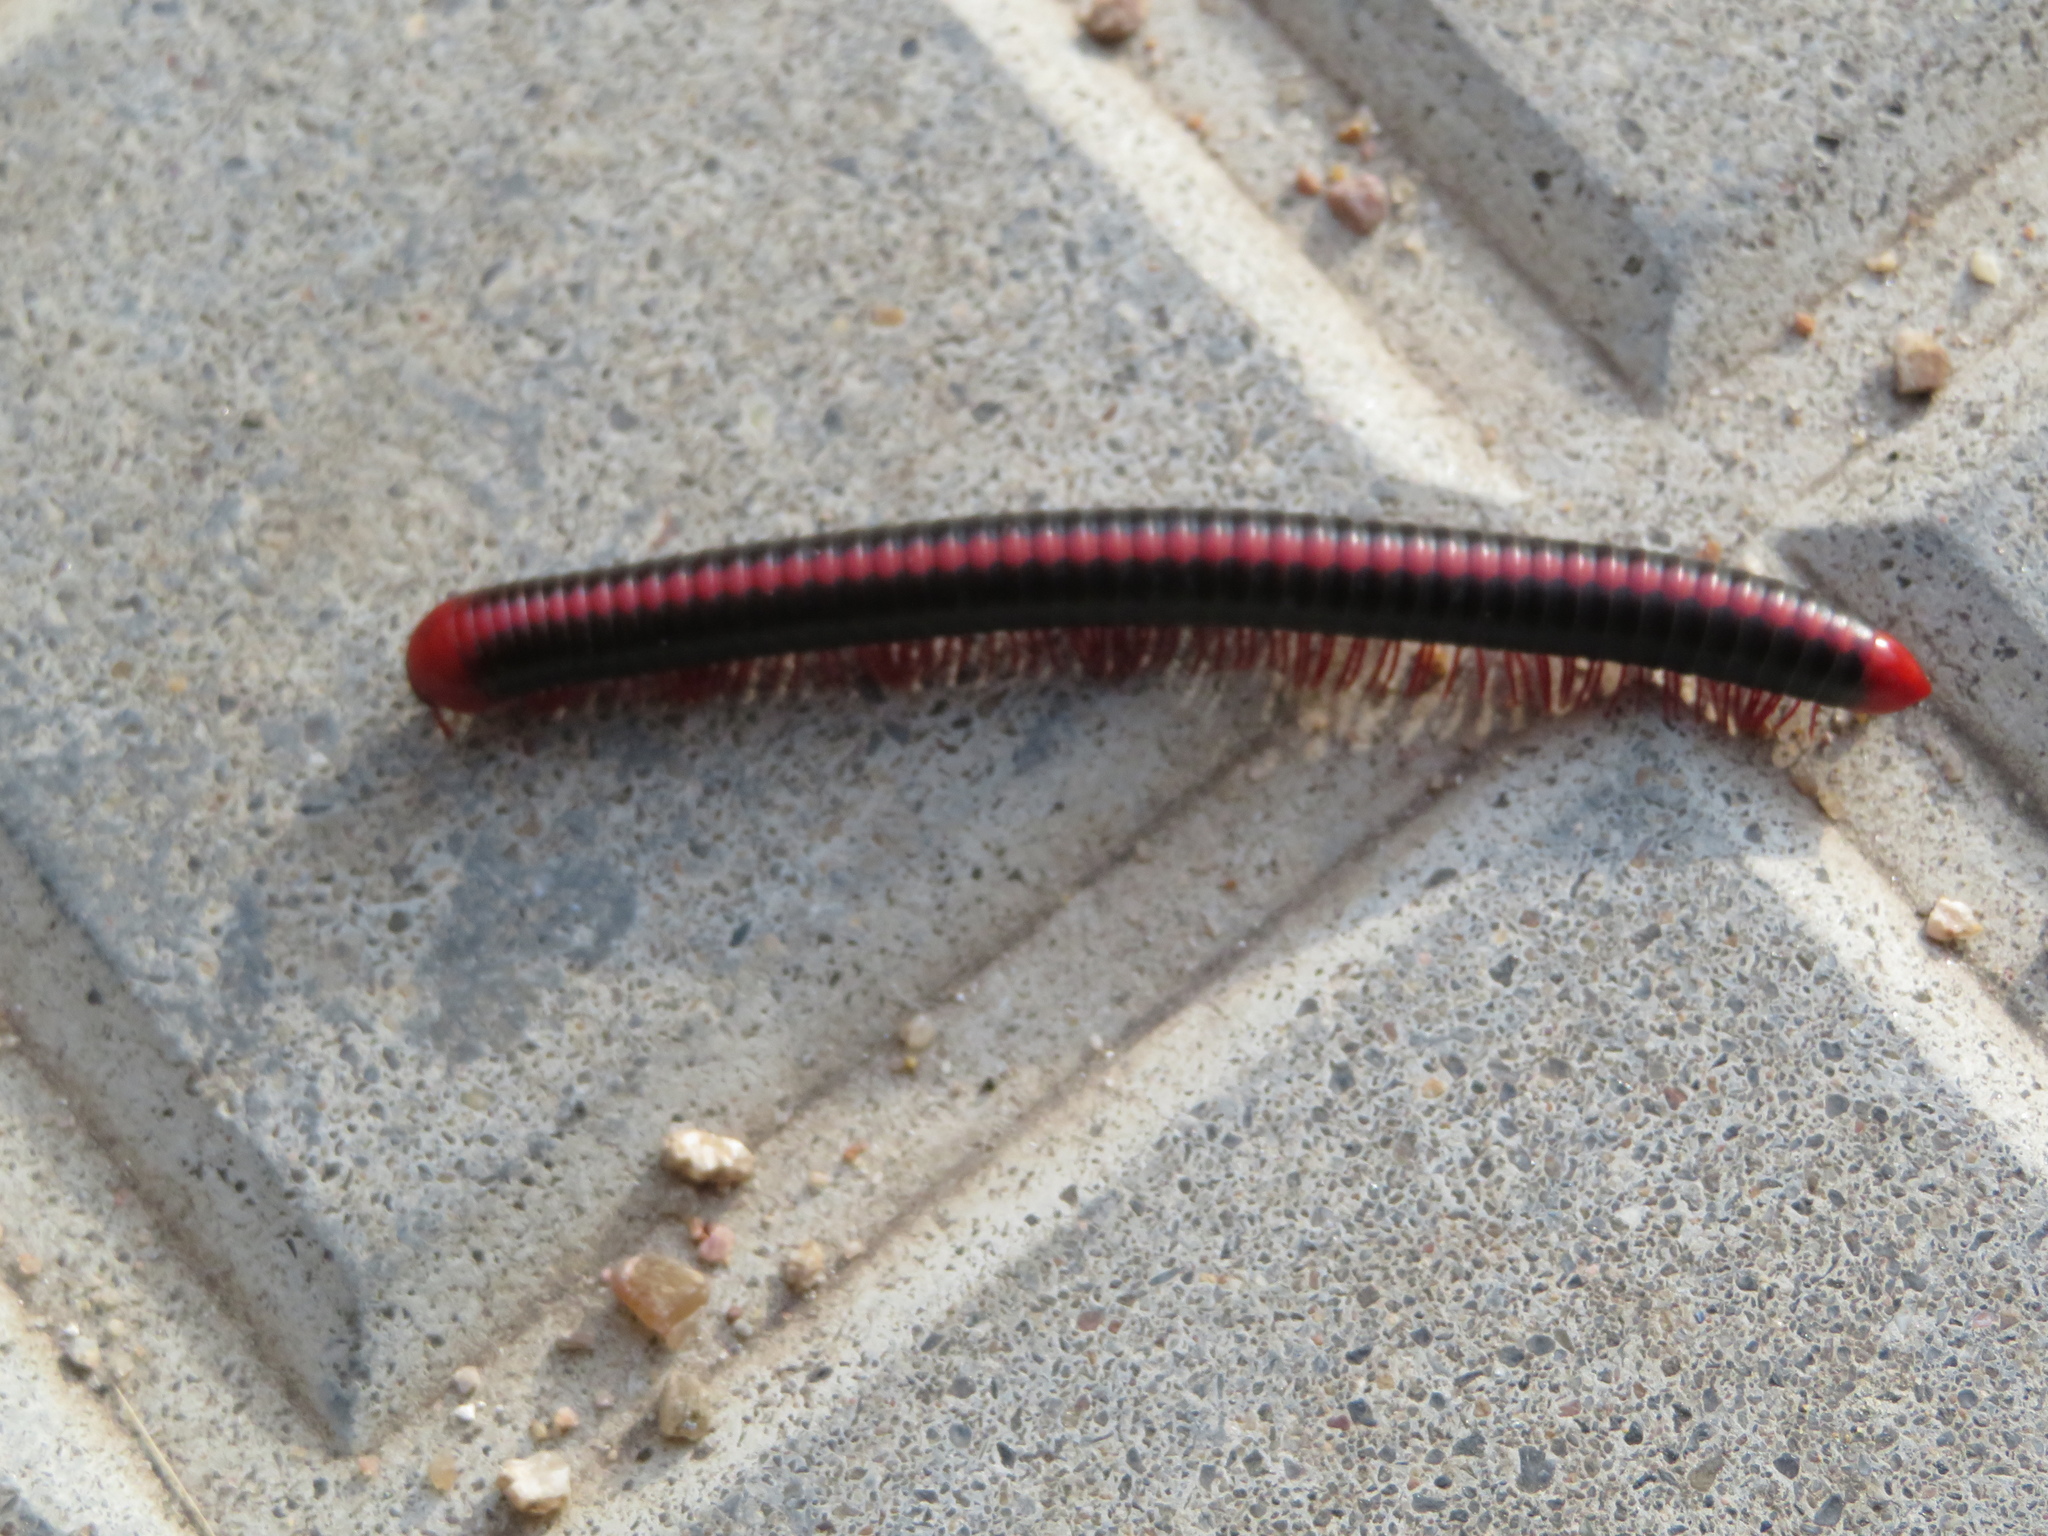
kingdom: Animalia
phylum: Arthropoda
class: Diplopoda
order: Spirobolida
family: Pachybolidae
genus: Xenobolus
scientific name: Xenobolus carnifex
